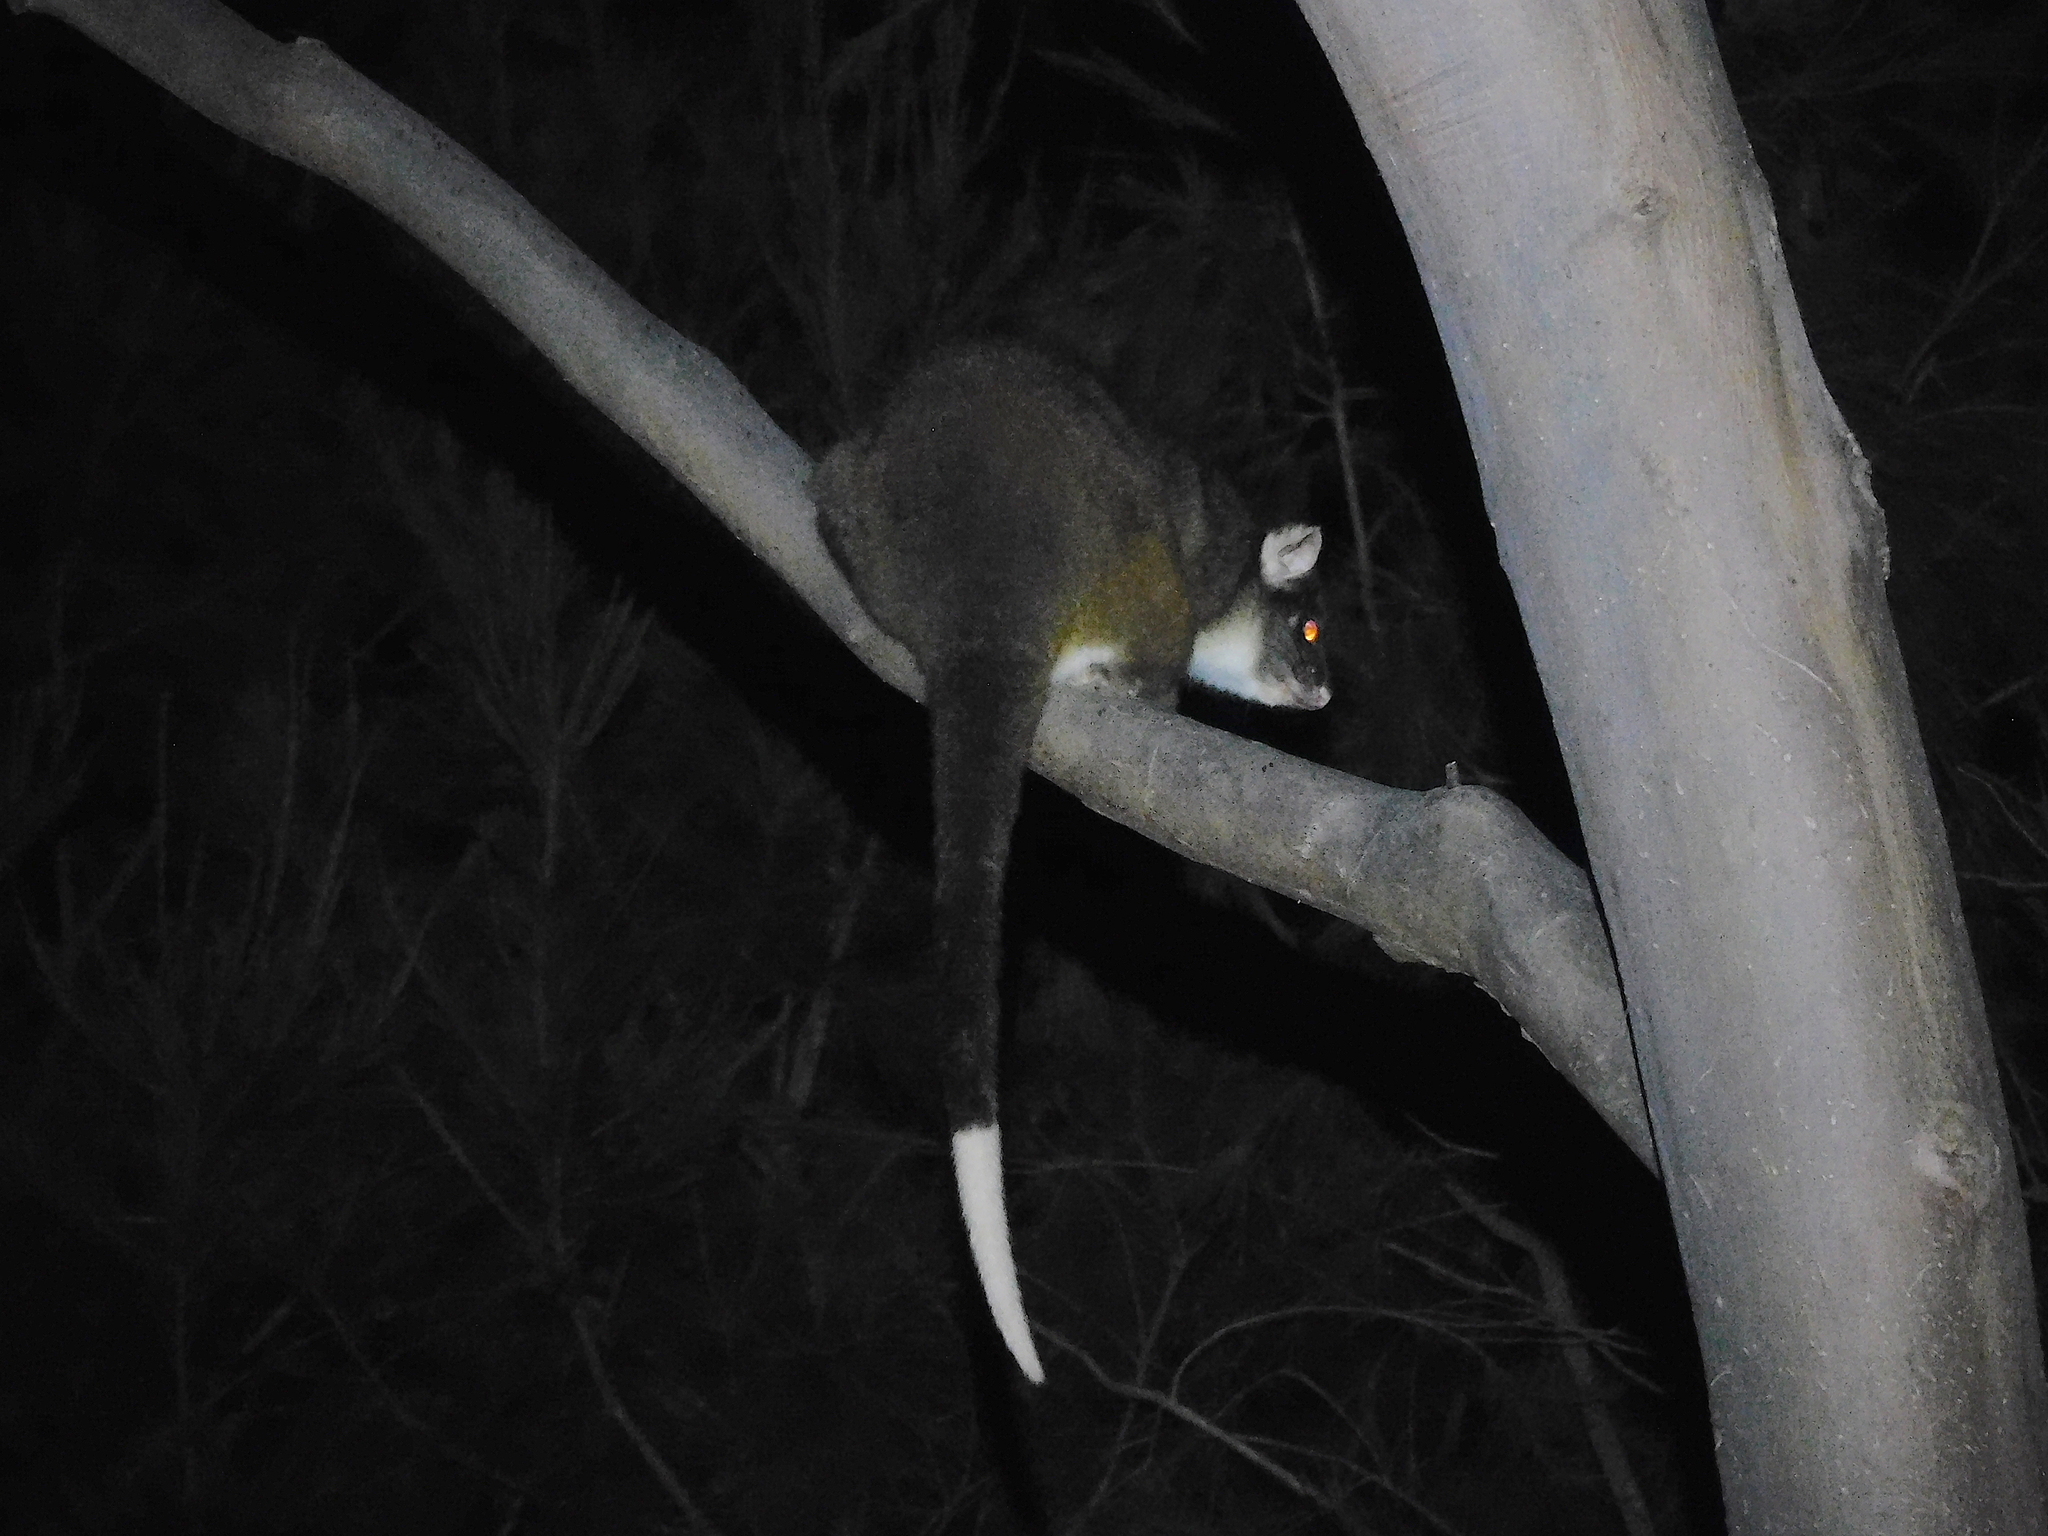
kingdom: Animalia
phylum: Chordata
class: Mammalia
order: Diprotodontia
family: Pseudocheiridae
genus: Pseudocheirus
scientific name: Pseudocheirus peregrinus
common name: Common ringtail possum
